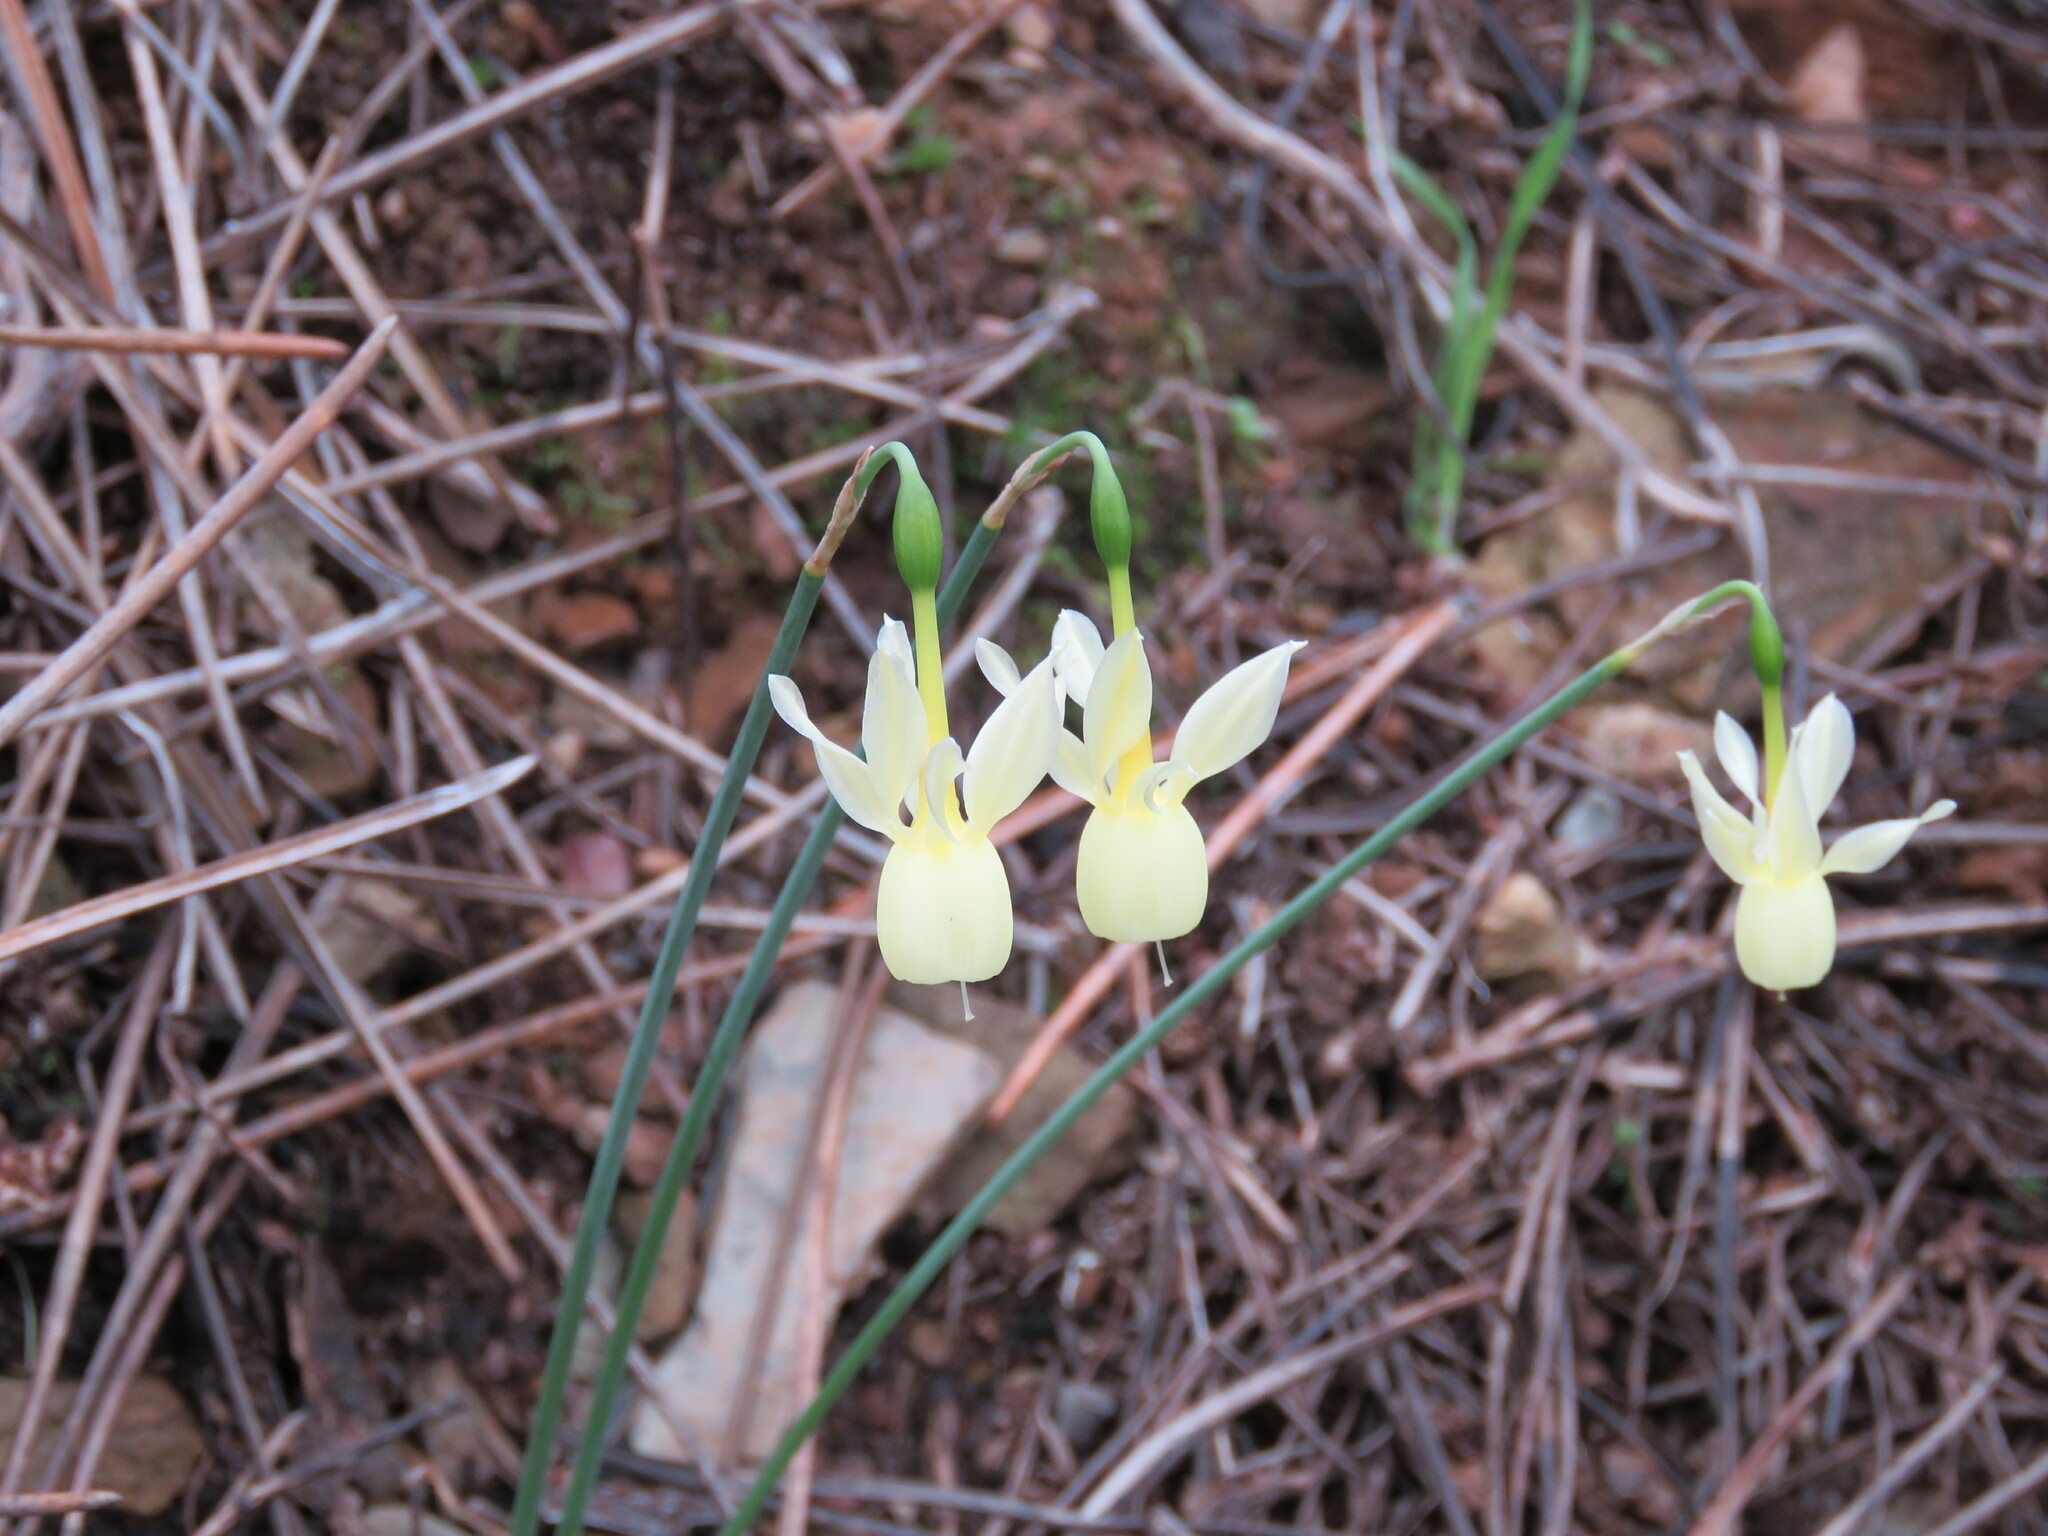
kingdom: Plantae
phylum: Tracheophyta
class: Liliopsida
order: Asparagales
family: Amaryllidaceae
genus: Narcissus
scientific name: Narcissus triandrus
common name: Angel's-tears
